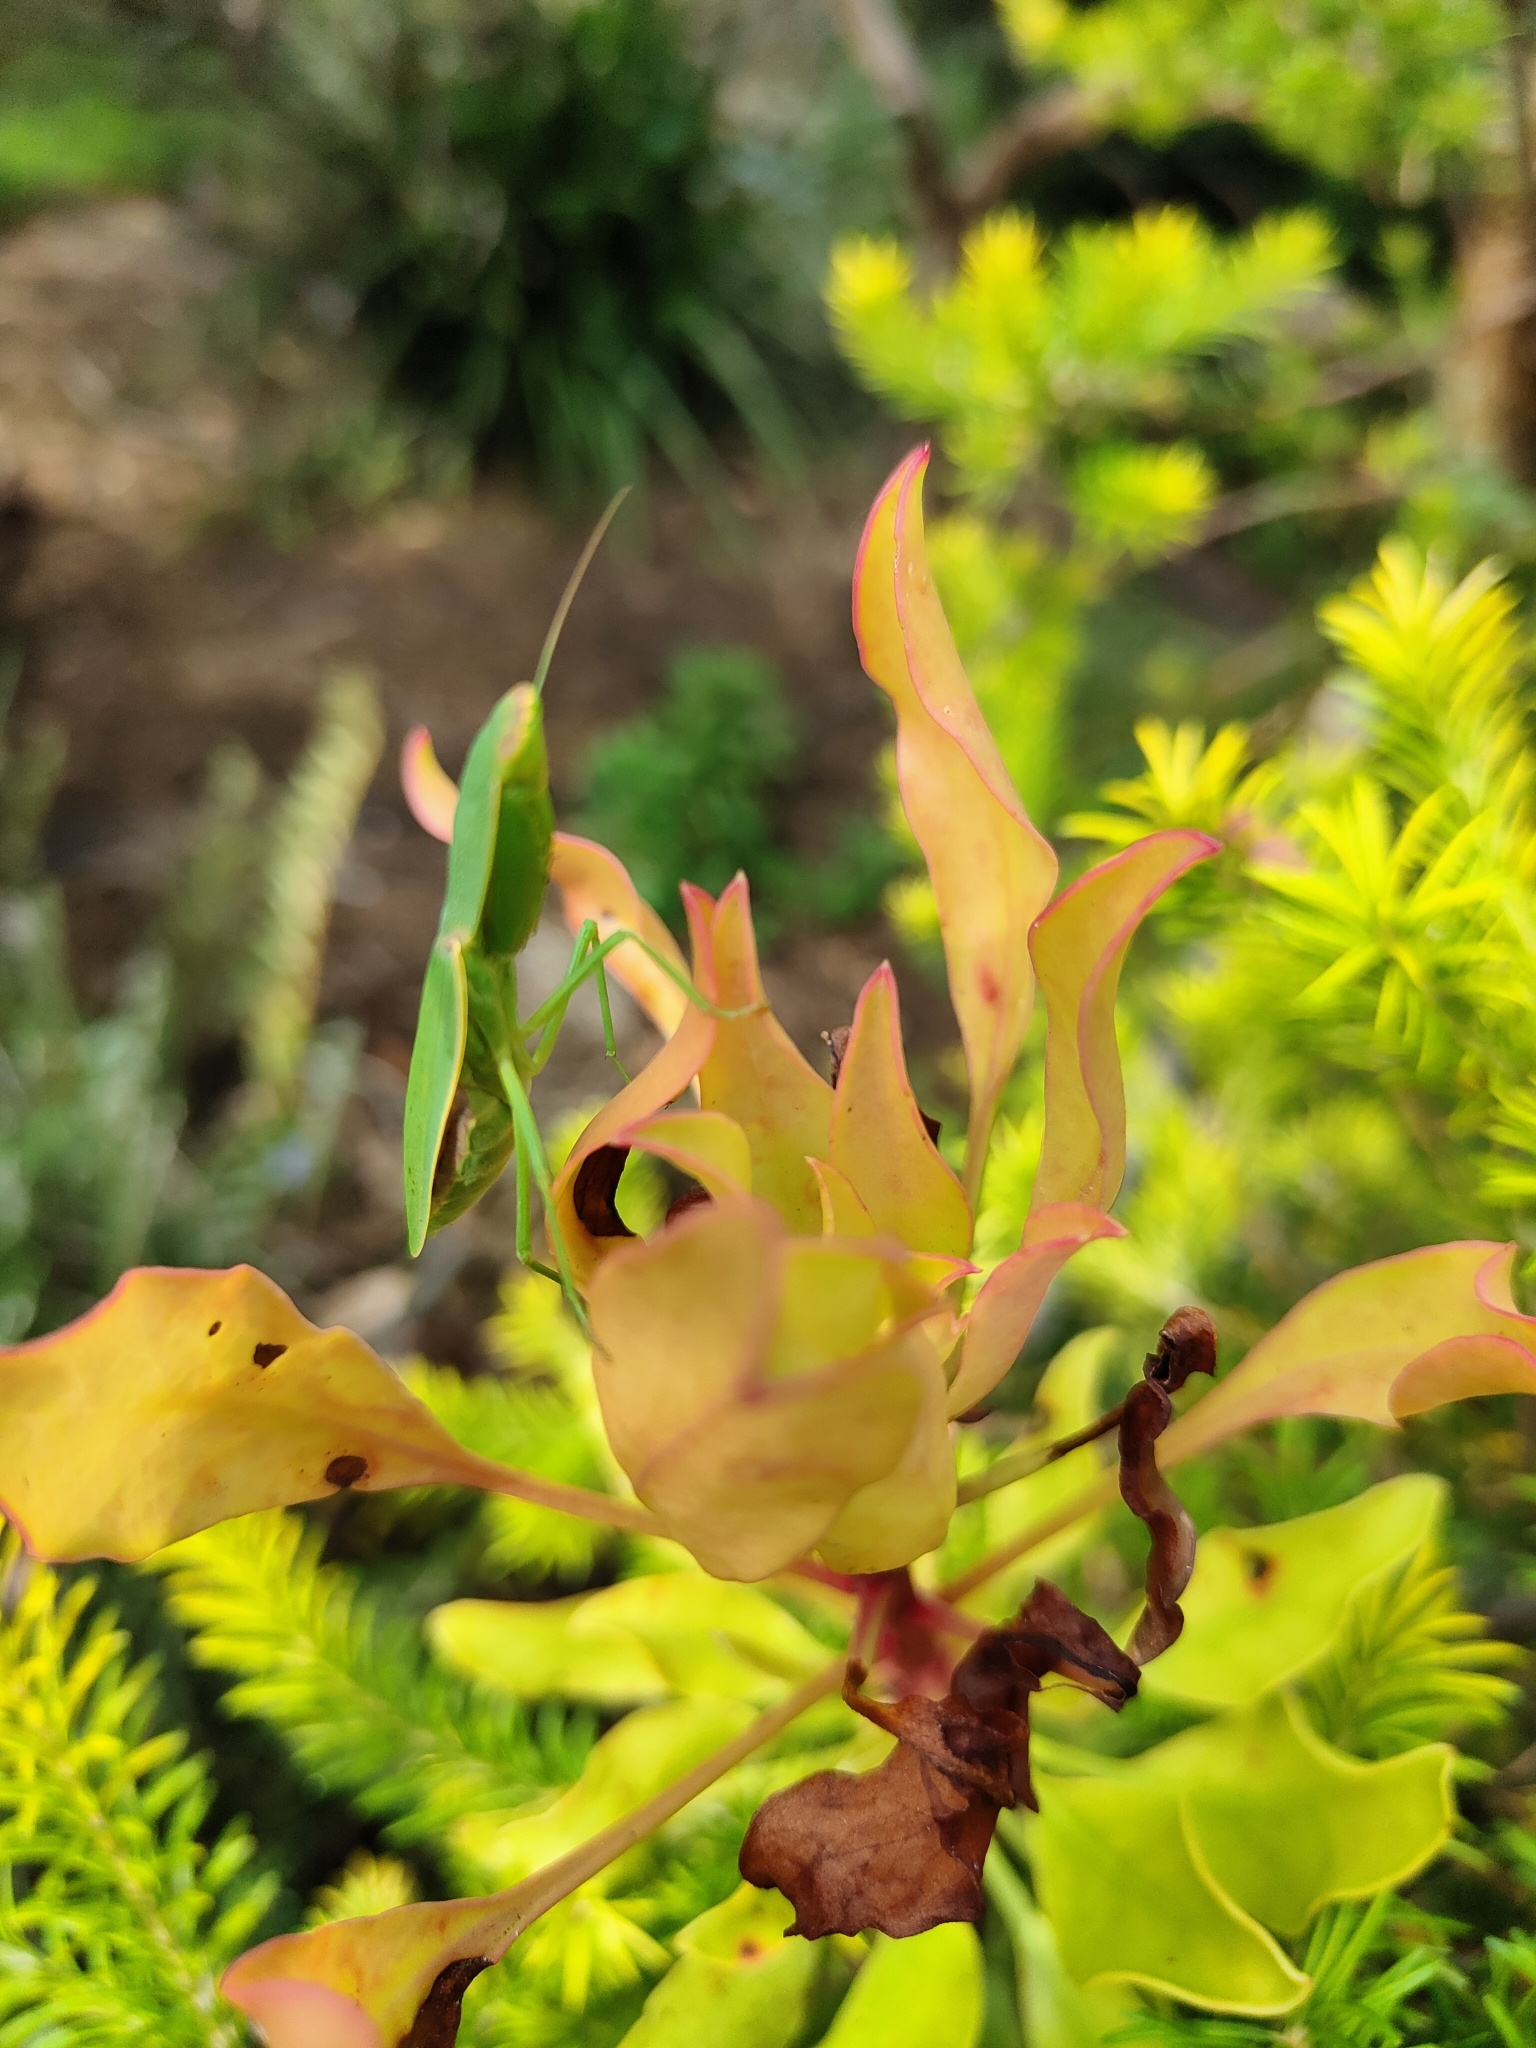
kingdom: Animalia
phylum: Arthropoda
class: Insecta
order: Mantodea
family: Mantidae
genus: Orthodera
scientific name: Orthodera ministralis
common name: Mantis
